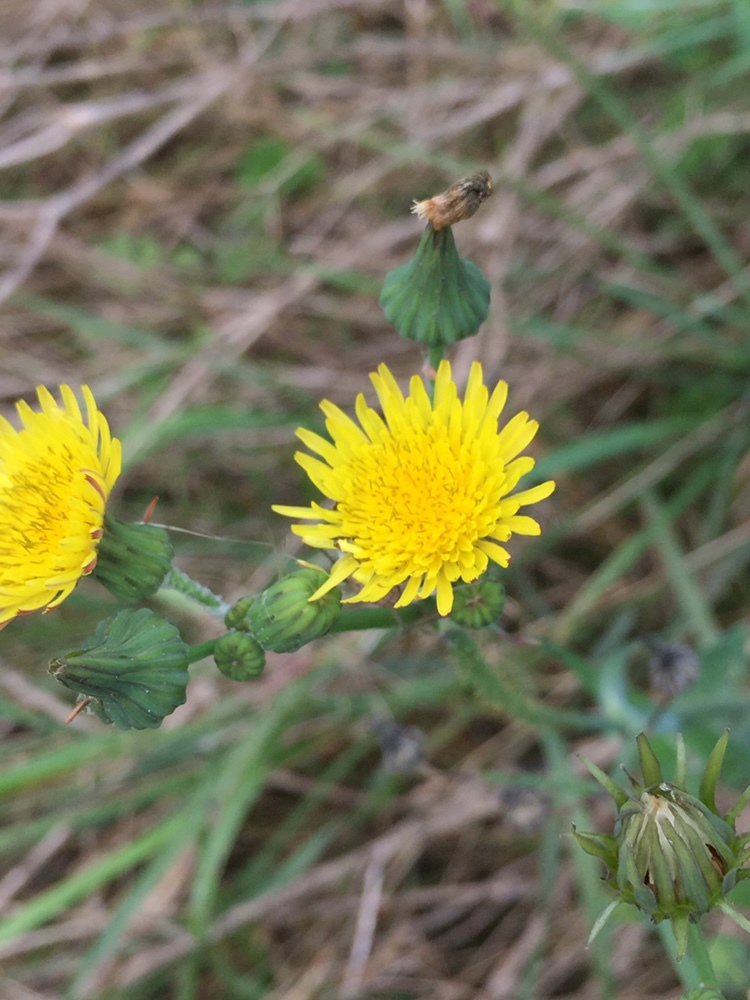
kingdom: Plantae
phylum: Tracheophyta
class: Magnoliopsida
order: Asterales
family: Asteraceae
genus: Sonchus
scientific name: Sonchus arvensis
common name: Perennial sow-thistle
